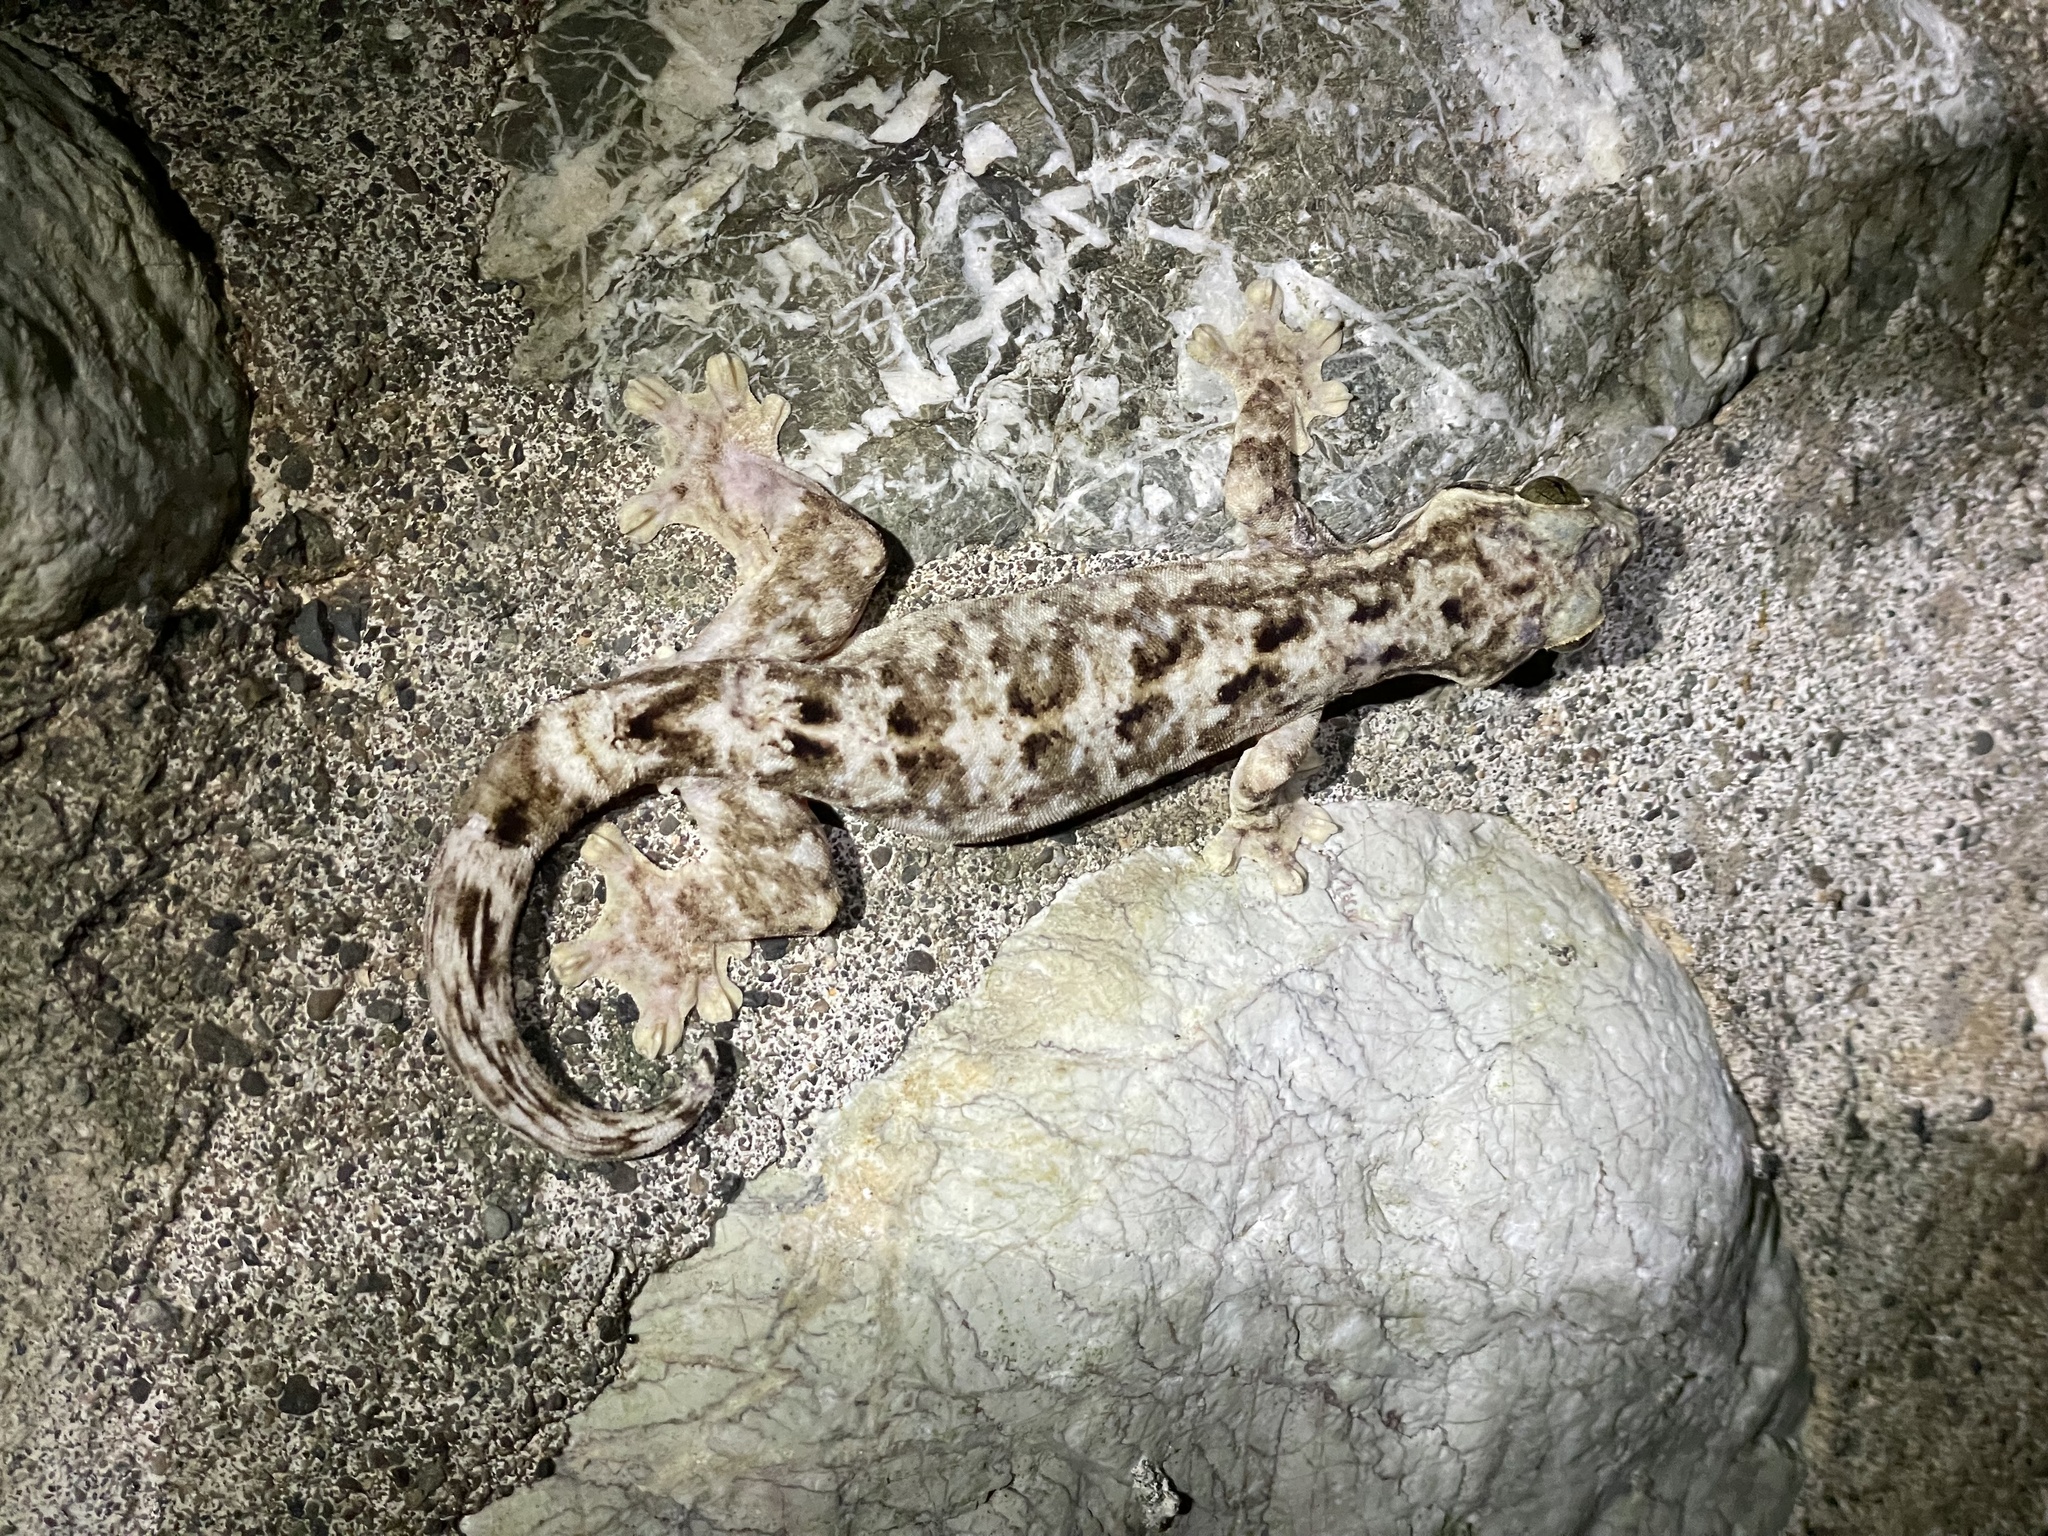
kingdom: Animalia
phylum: Chordata
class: Squamata
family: Phyllodactylidae
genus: Thecadactylus
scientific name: Thecadactylus rapicauda
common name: Turnip-tailed gecko
